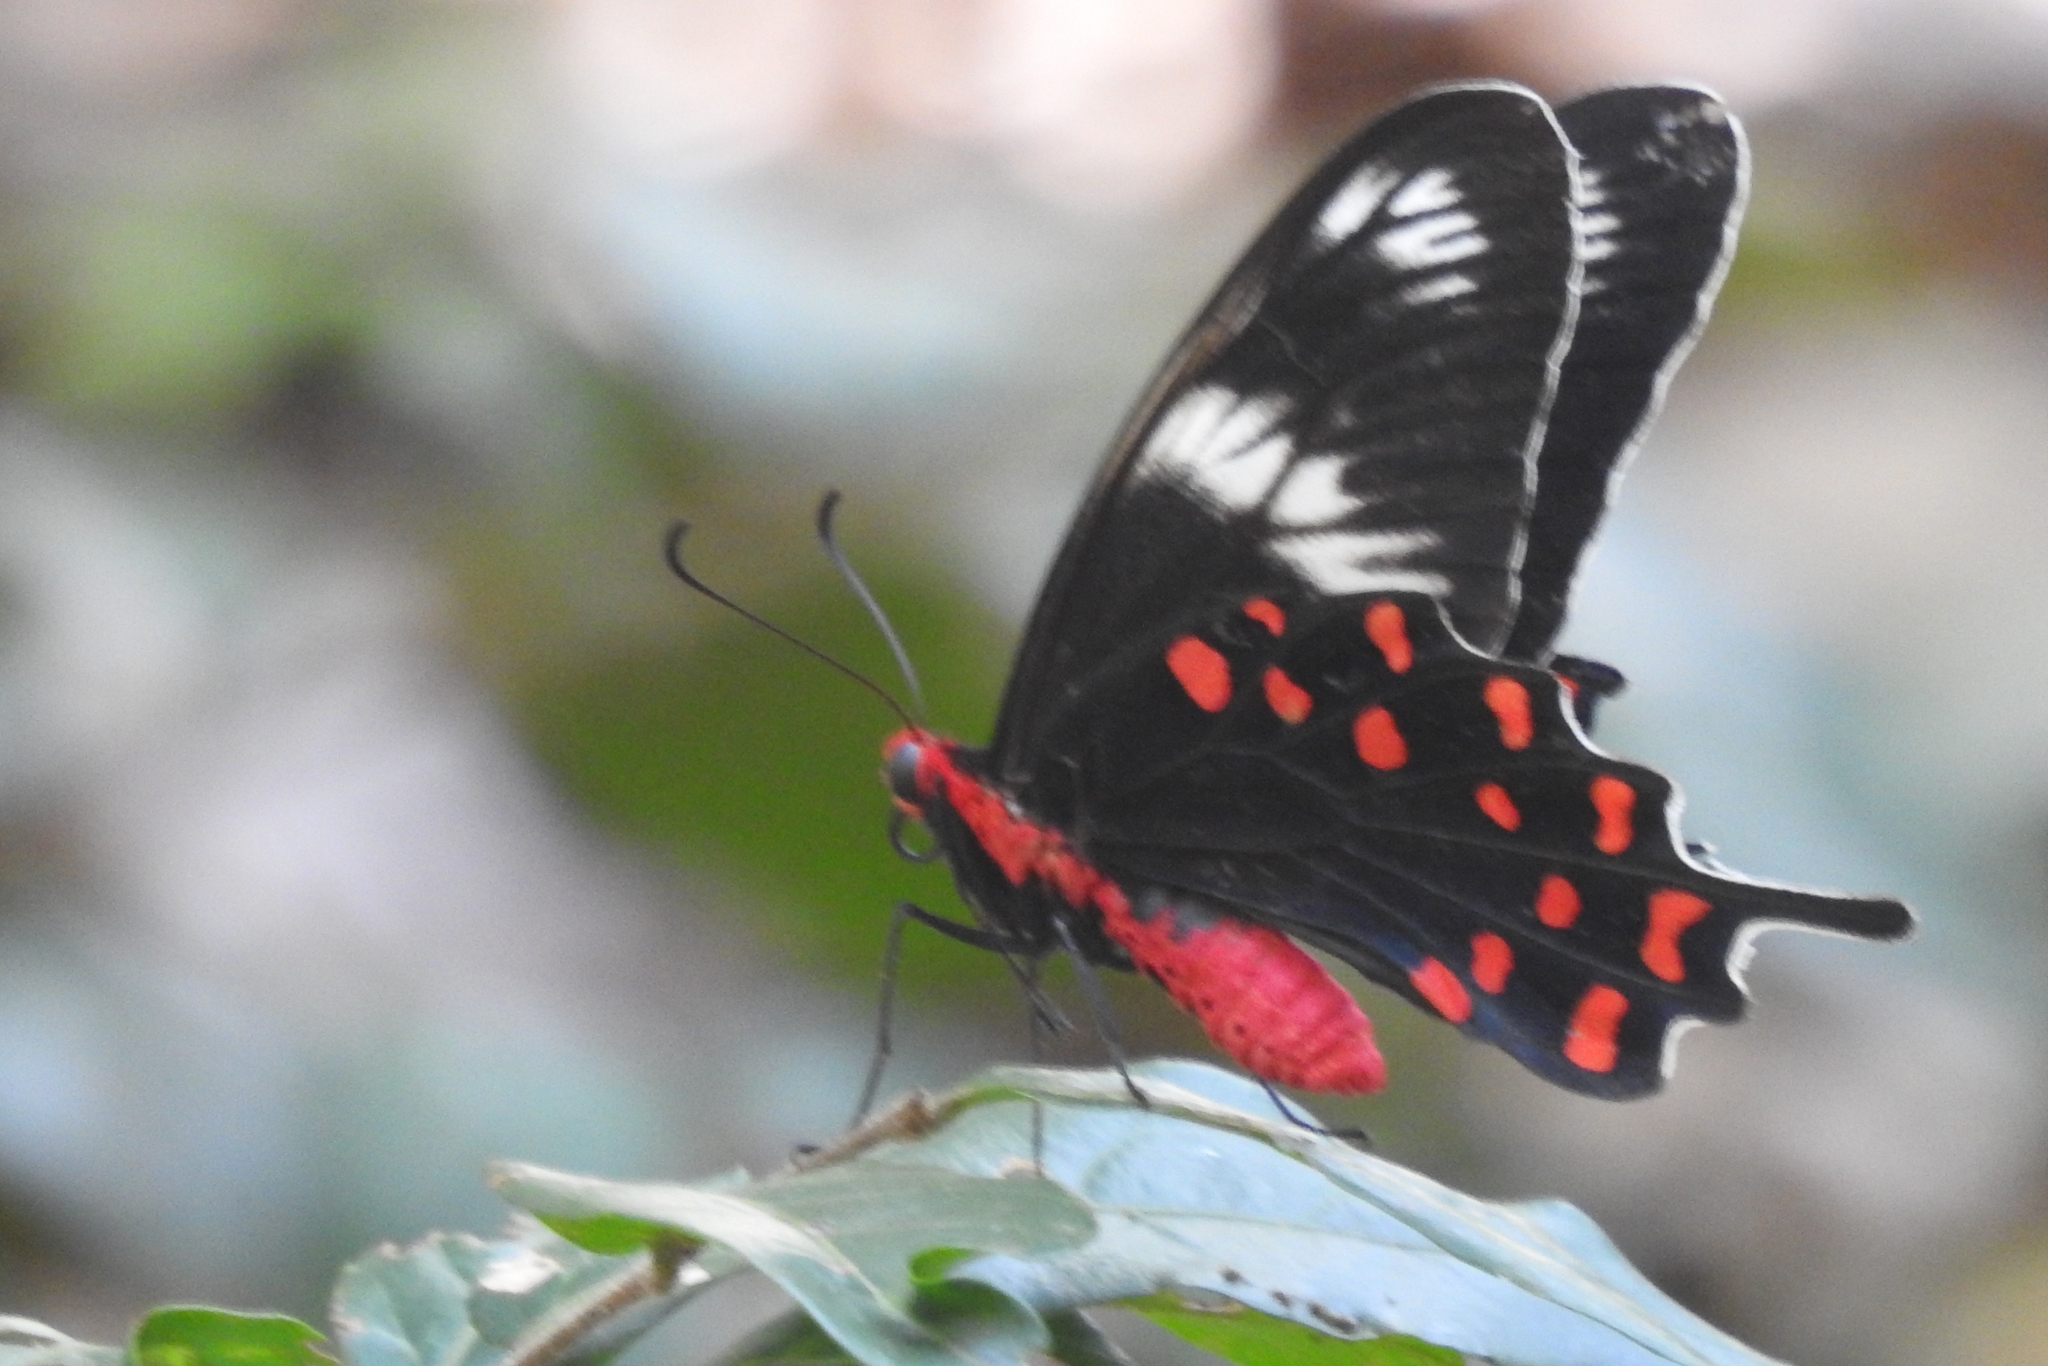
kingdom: Animalia
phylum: Arthropoda
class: Insecta
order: Lepidoptera
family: Papilionidae
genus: Pachliopta
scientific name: Pachliopta hector
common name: Crimson rose
